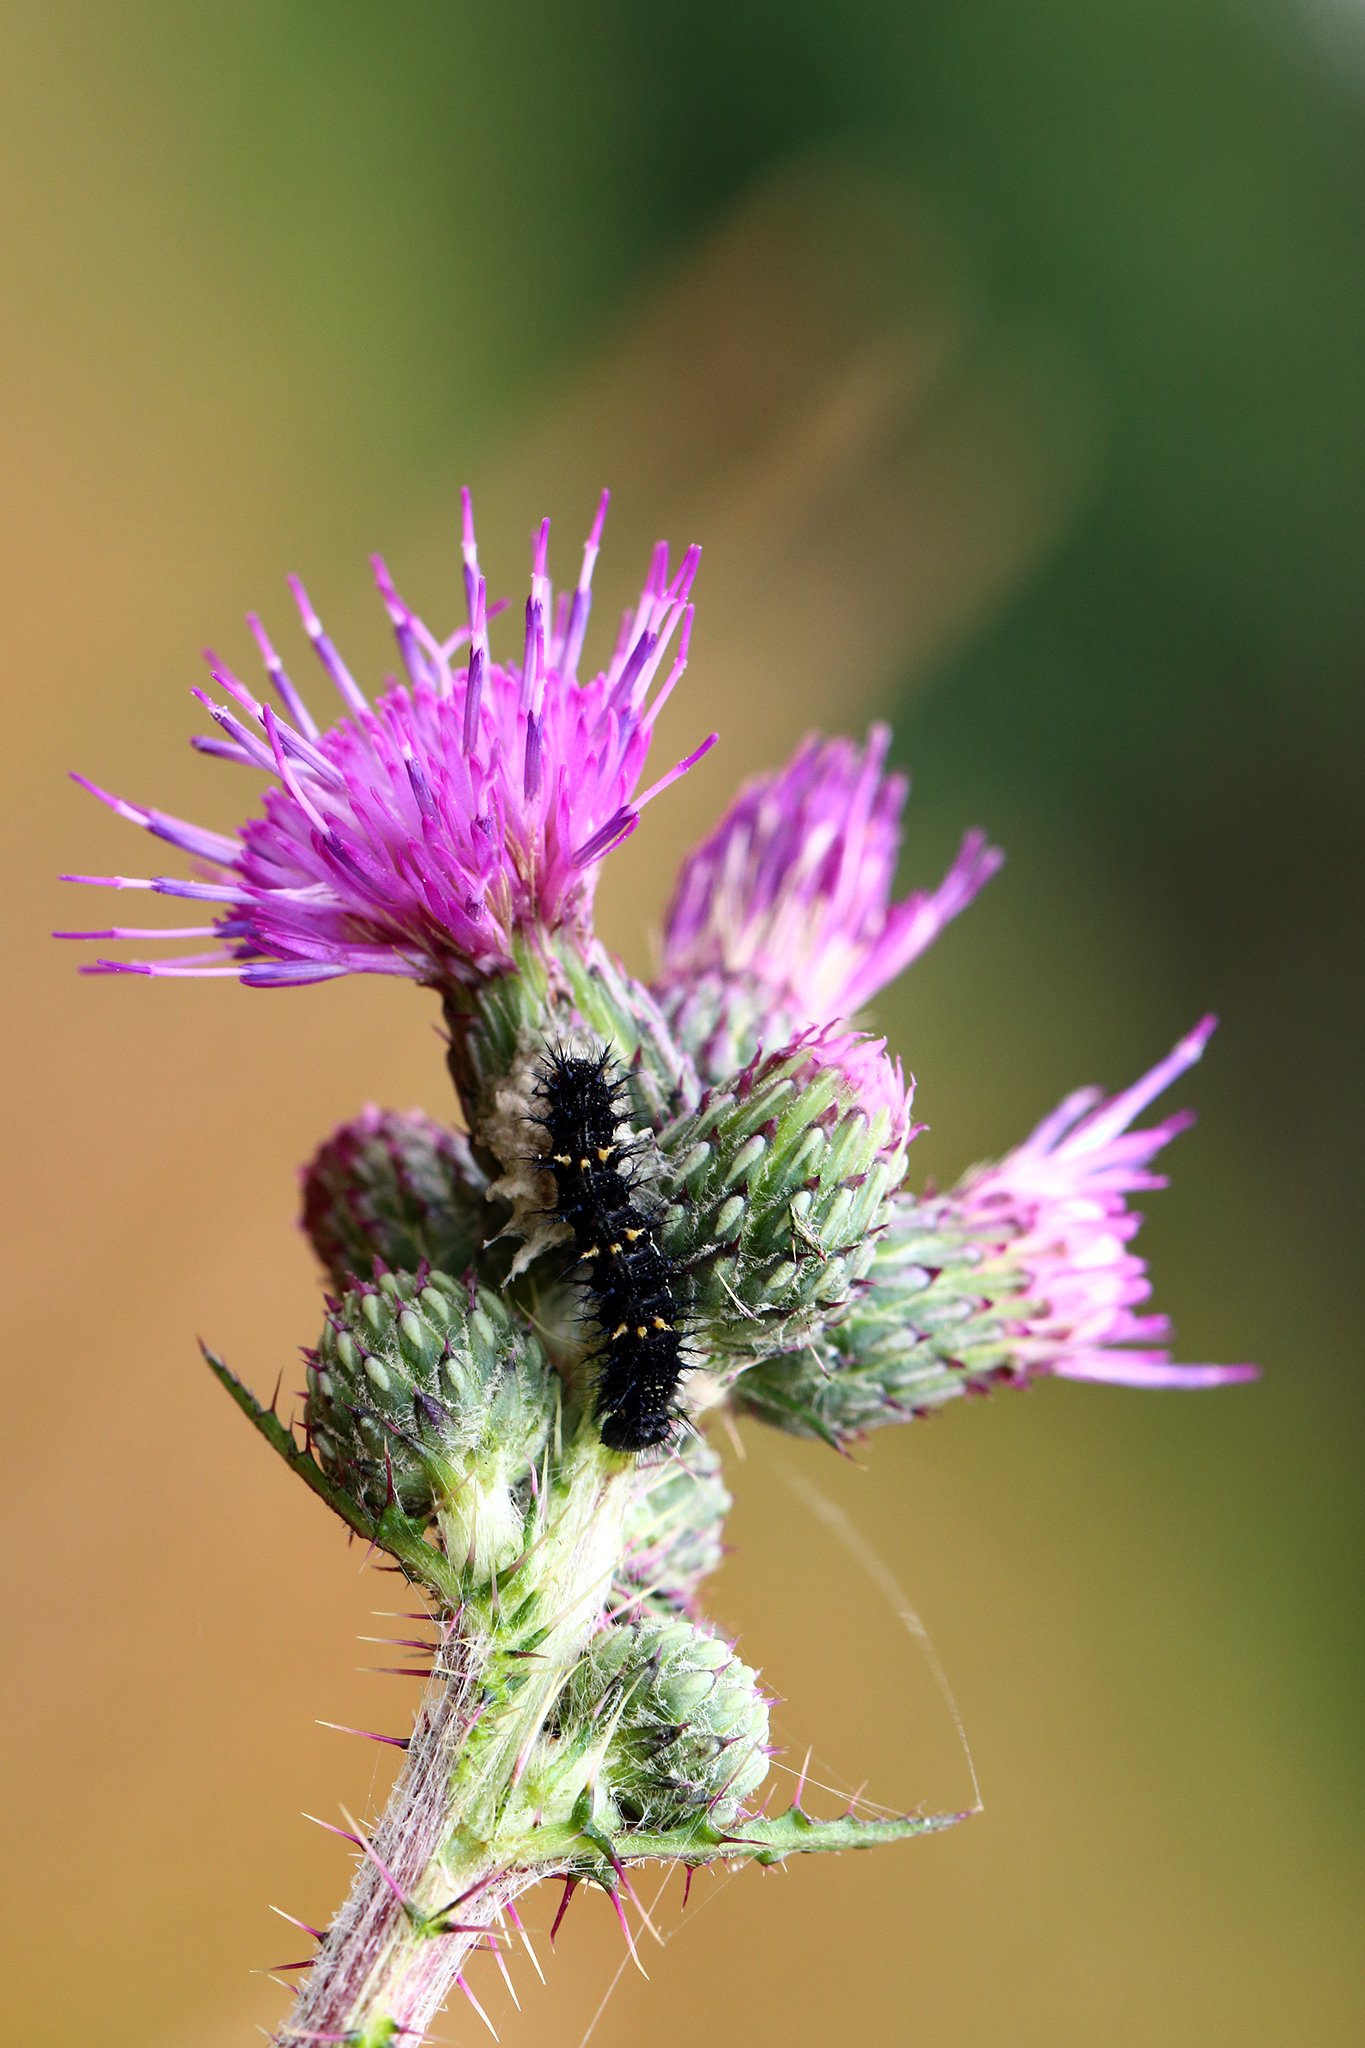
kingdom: Animalia
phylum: Arthropoda
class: Insecta
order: Lepidoptera
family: Nymphalidae
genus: Vanessa
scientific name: Vanessa cardui
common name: Painted lady
